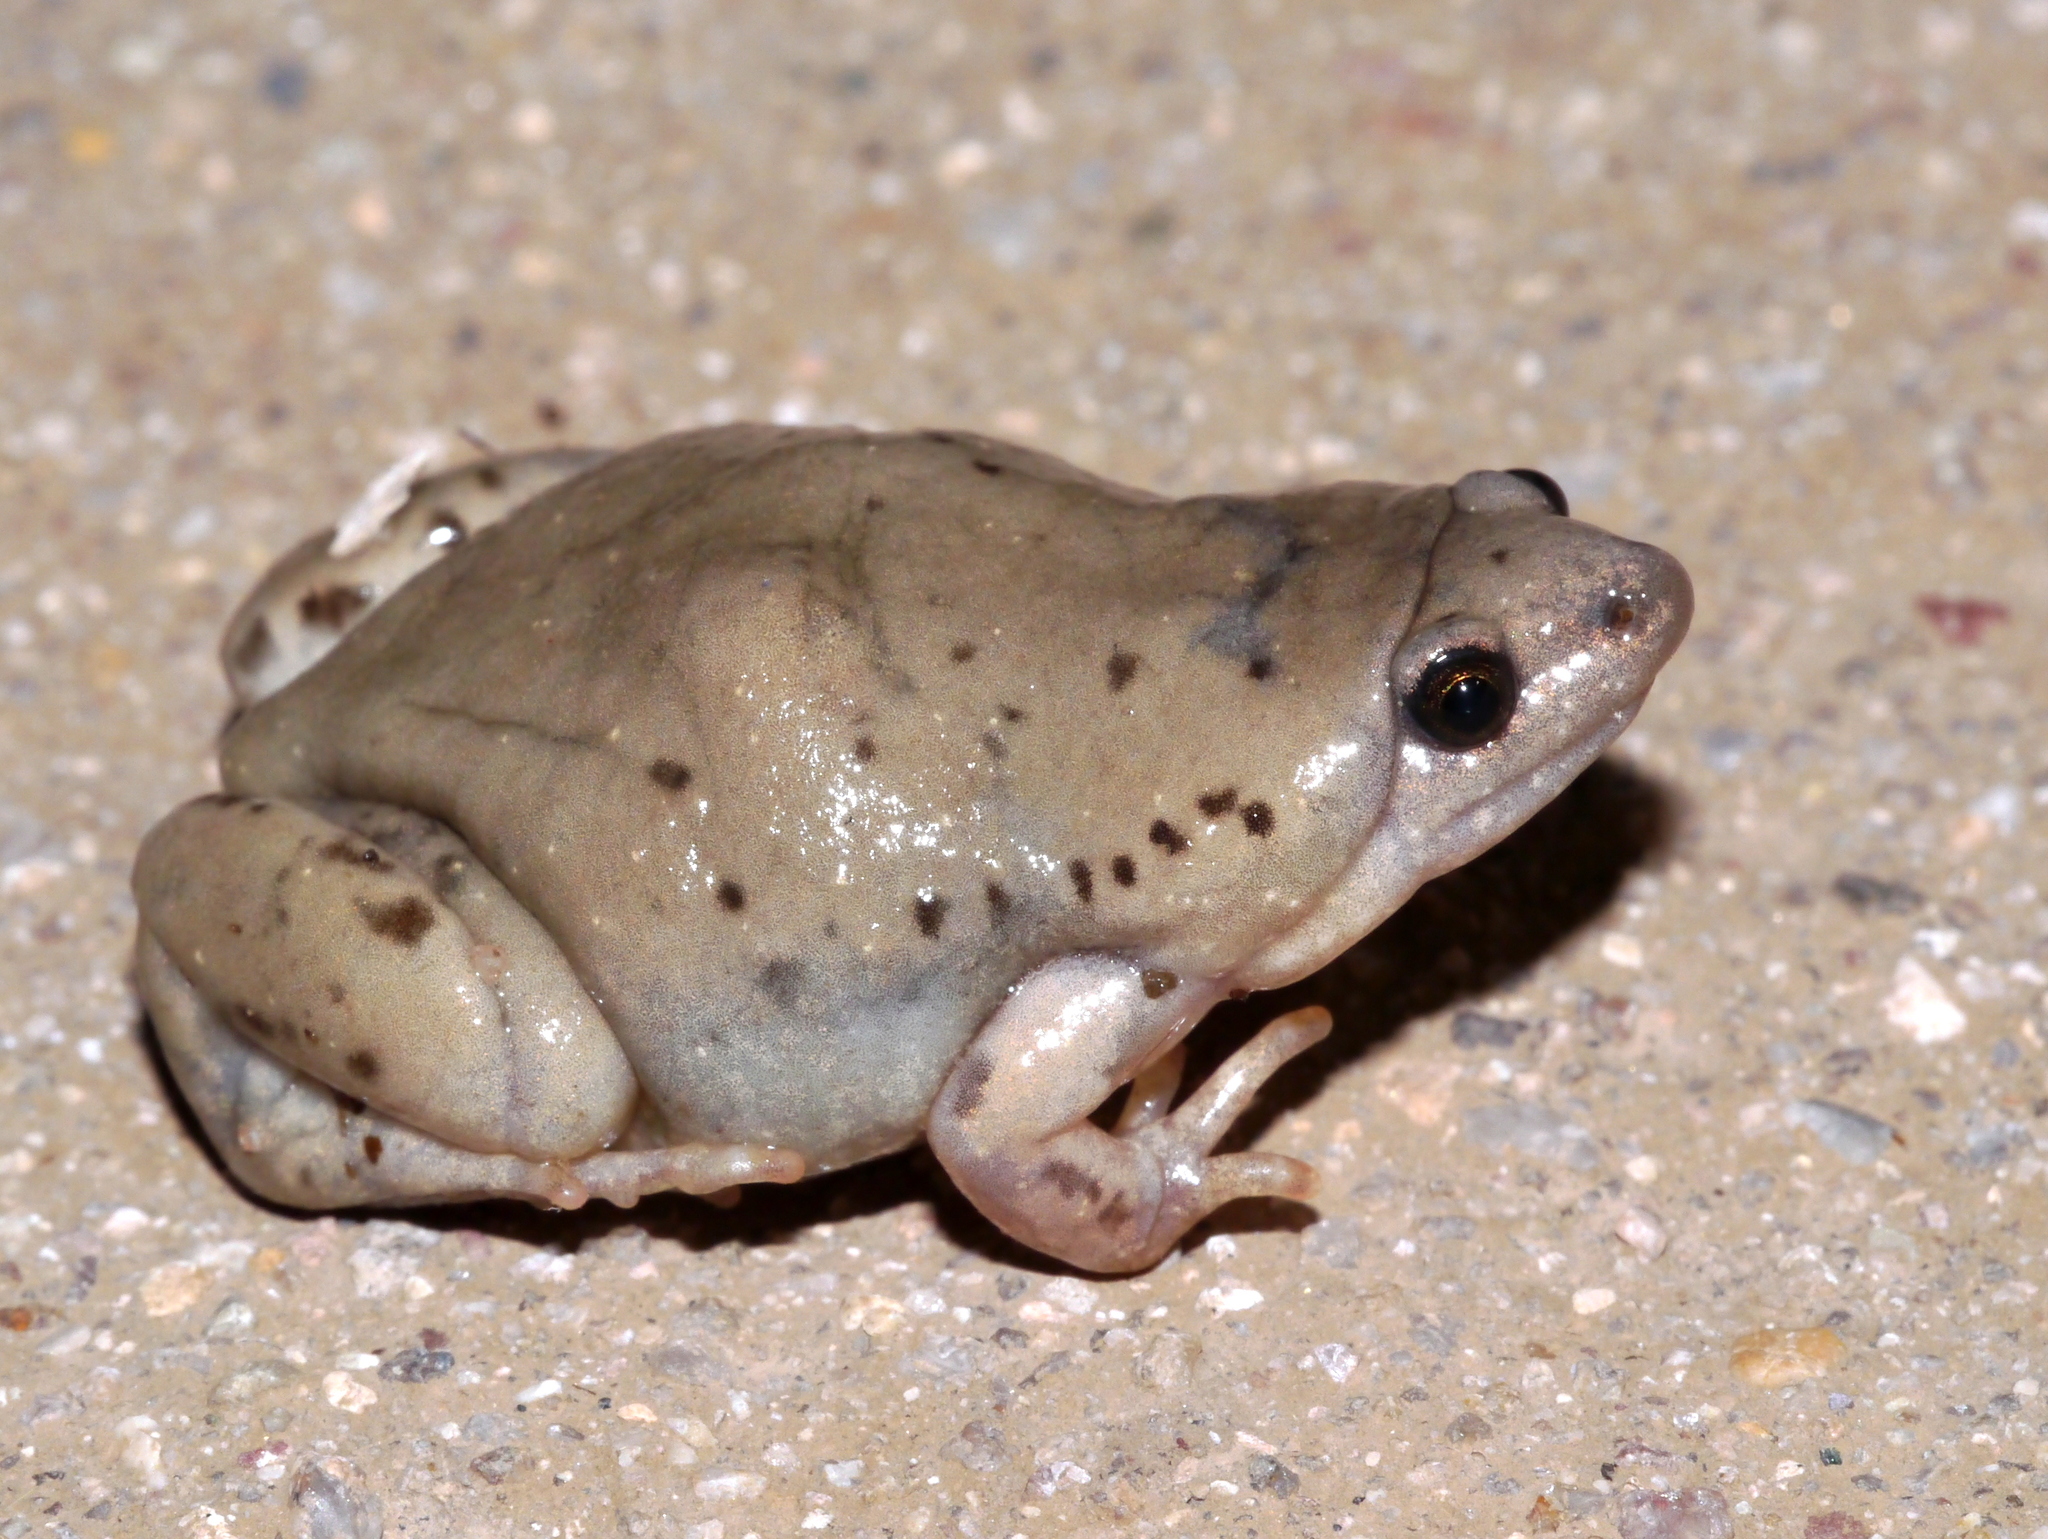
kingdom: Animalia
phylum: Chordata
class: Amphibia
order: Anura
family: Microhylidae
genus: Gastrophryne
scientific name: Gastrophryne mazatlanensis
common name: Sinaloan narrow-mouthed toad
